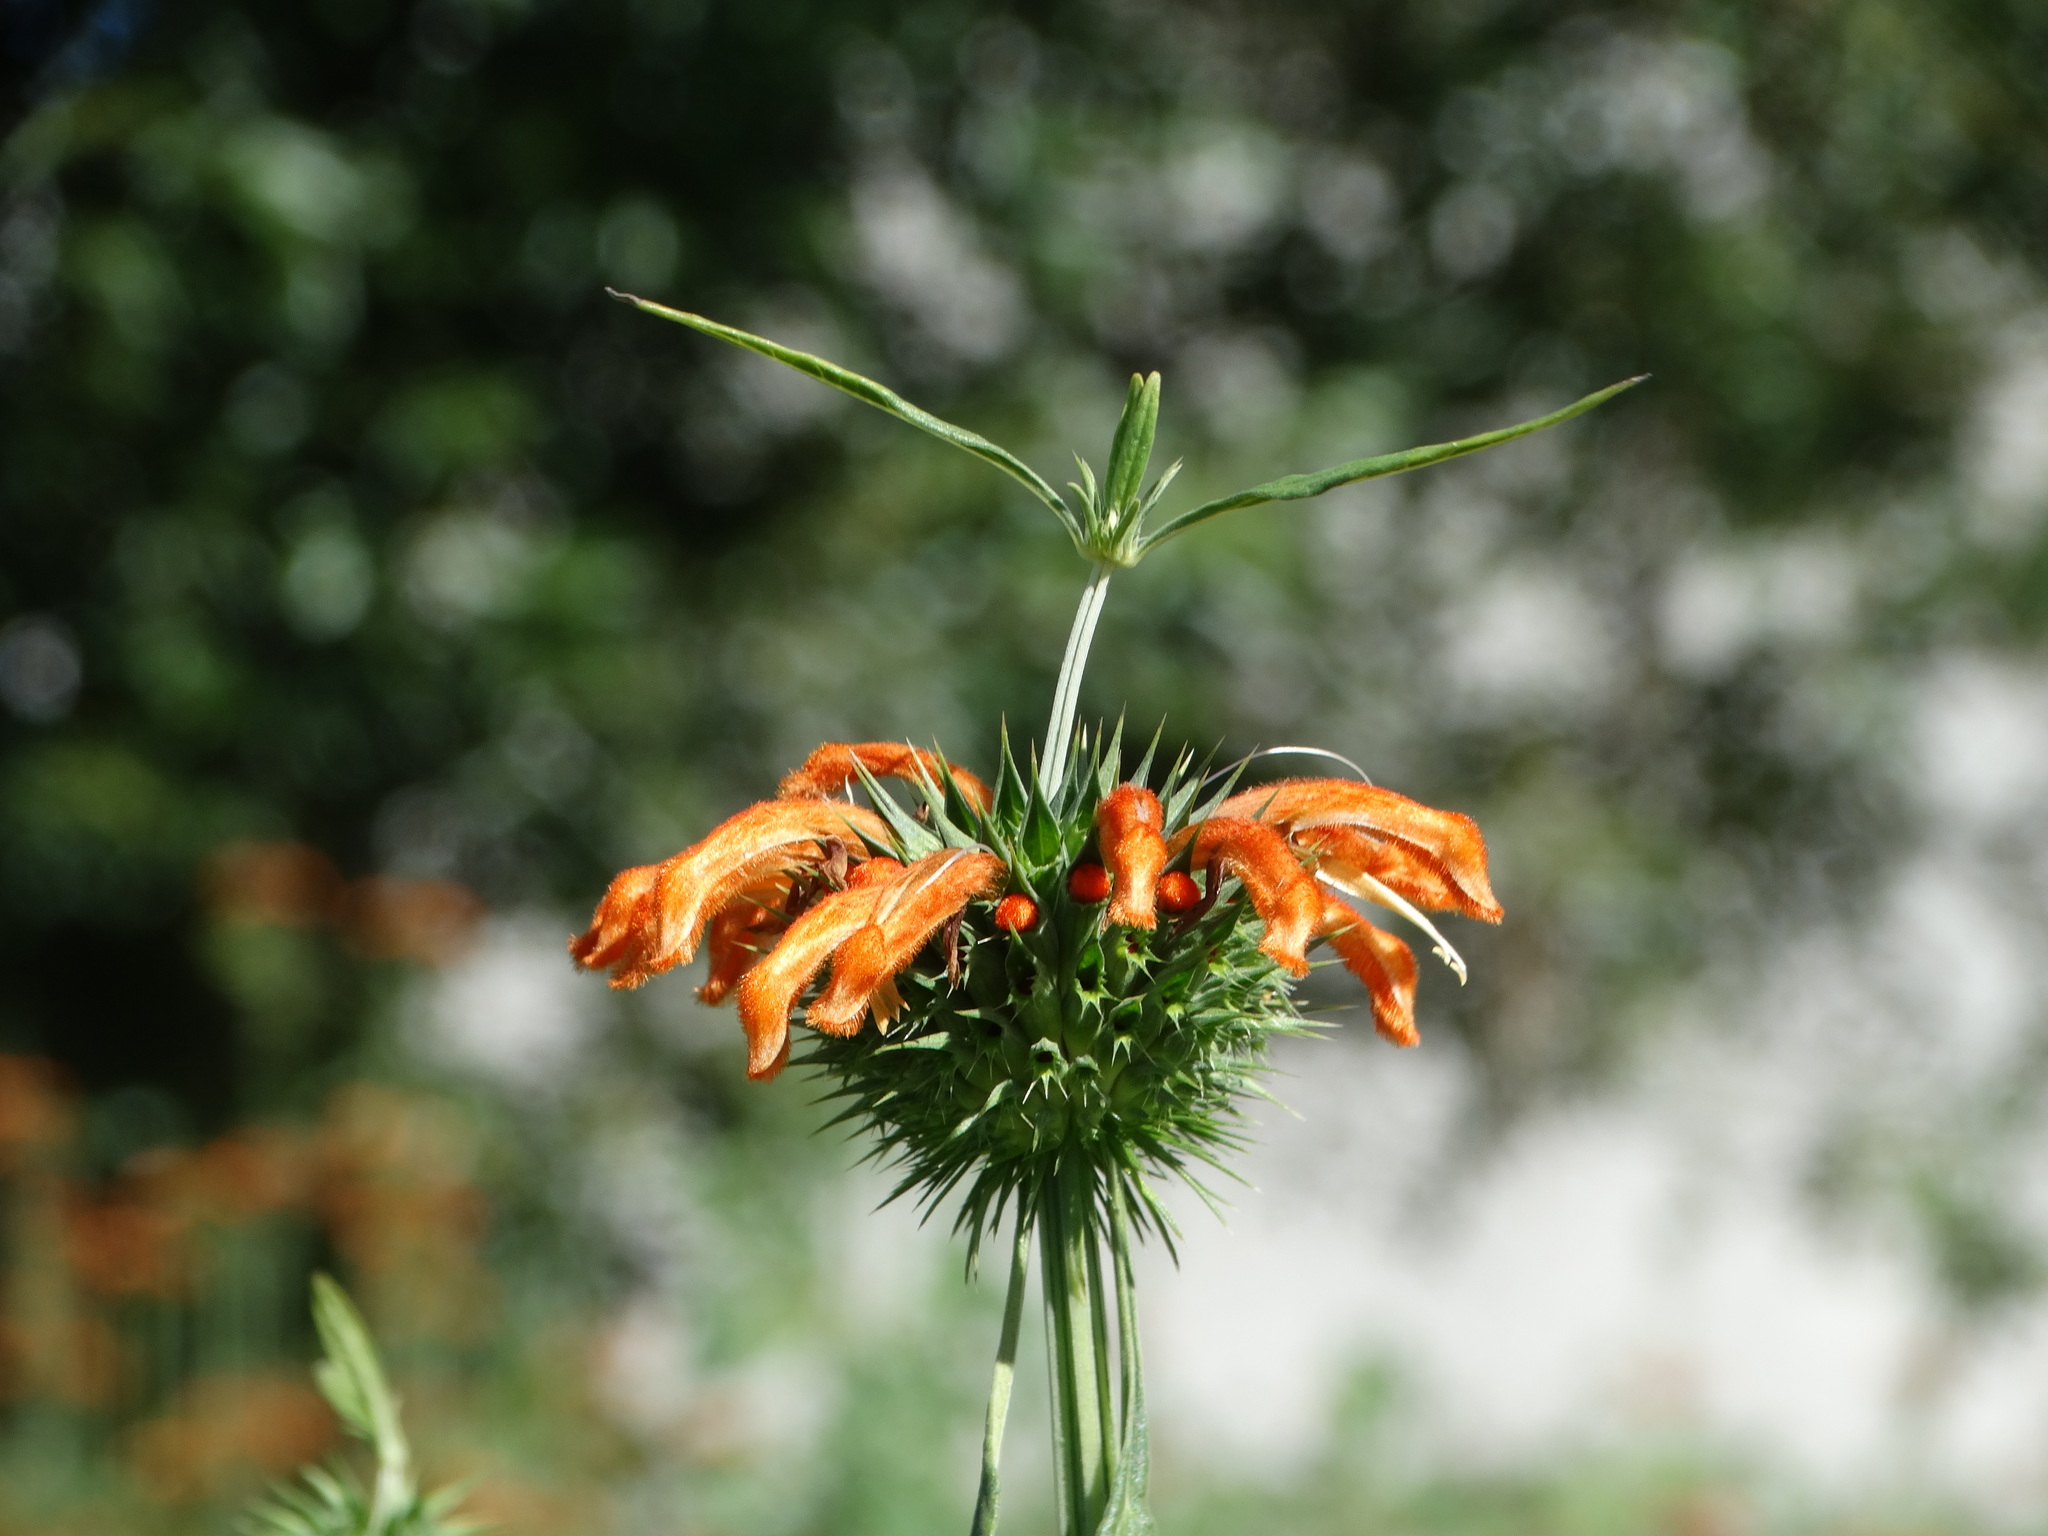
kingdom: Plantae
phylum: Tracheophyta
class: Magnoliopsida
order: Lamiales
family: Lamiaceae
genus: Leonotis
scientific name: Leonotis nepetifolia
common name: Christmas candlestick
